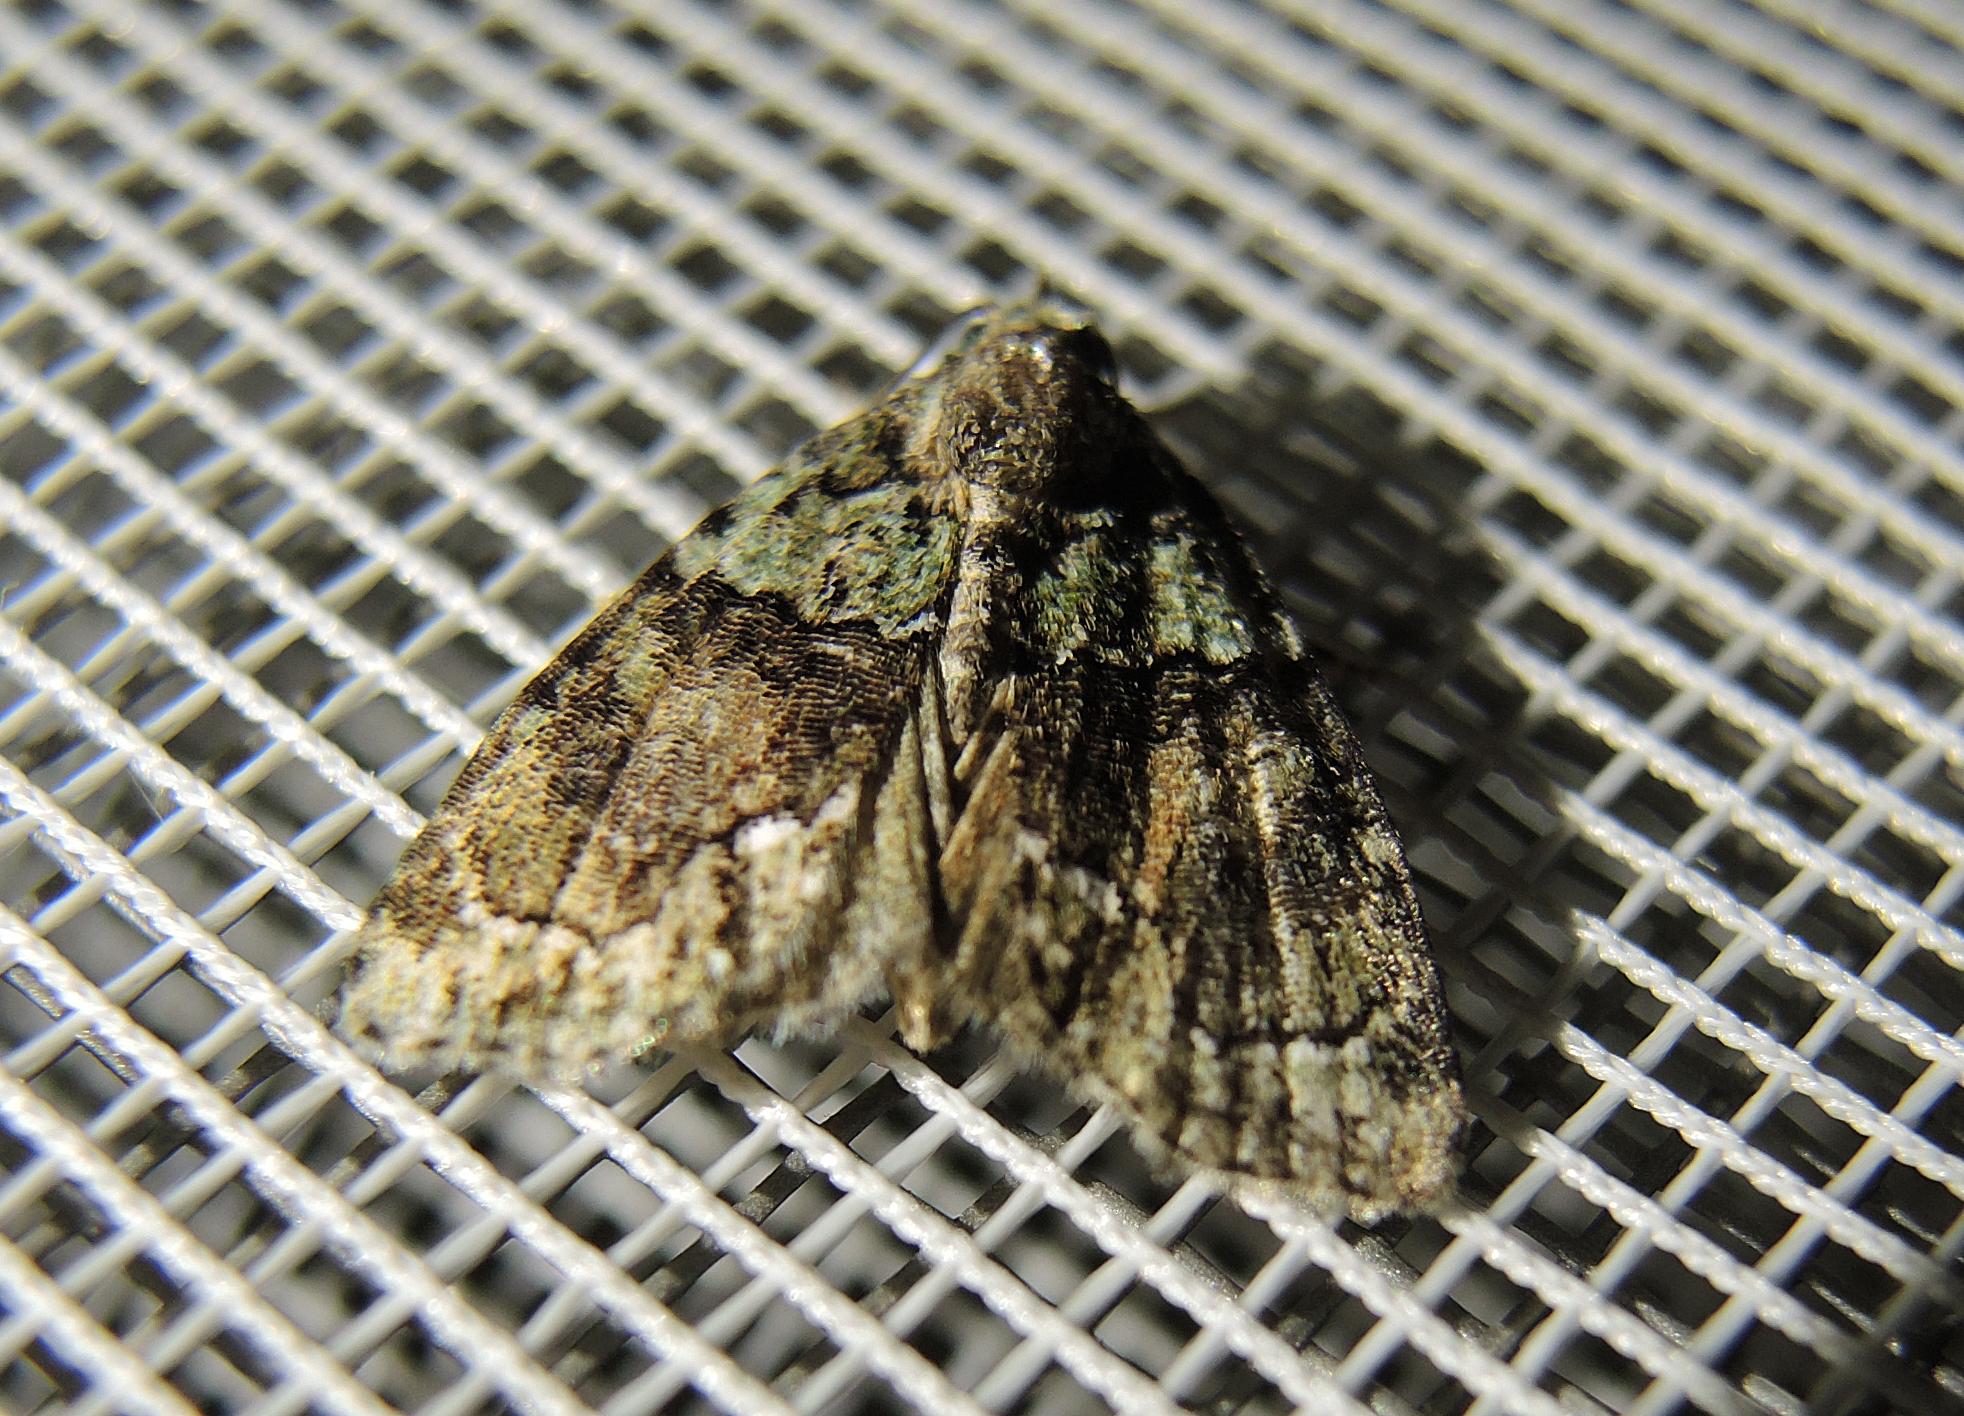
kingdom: Animalia
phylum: Arthropoda
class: Insecta
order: Lepidoptera
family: Noctuidae
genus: Cryphia
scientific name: Cryphia ochsi
